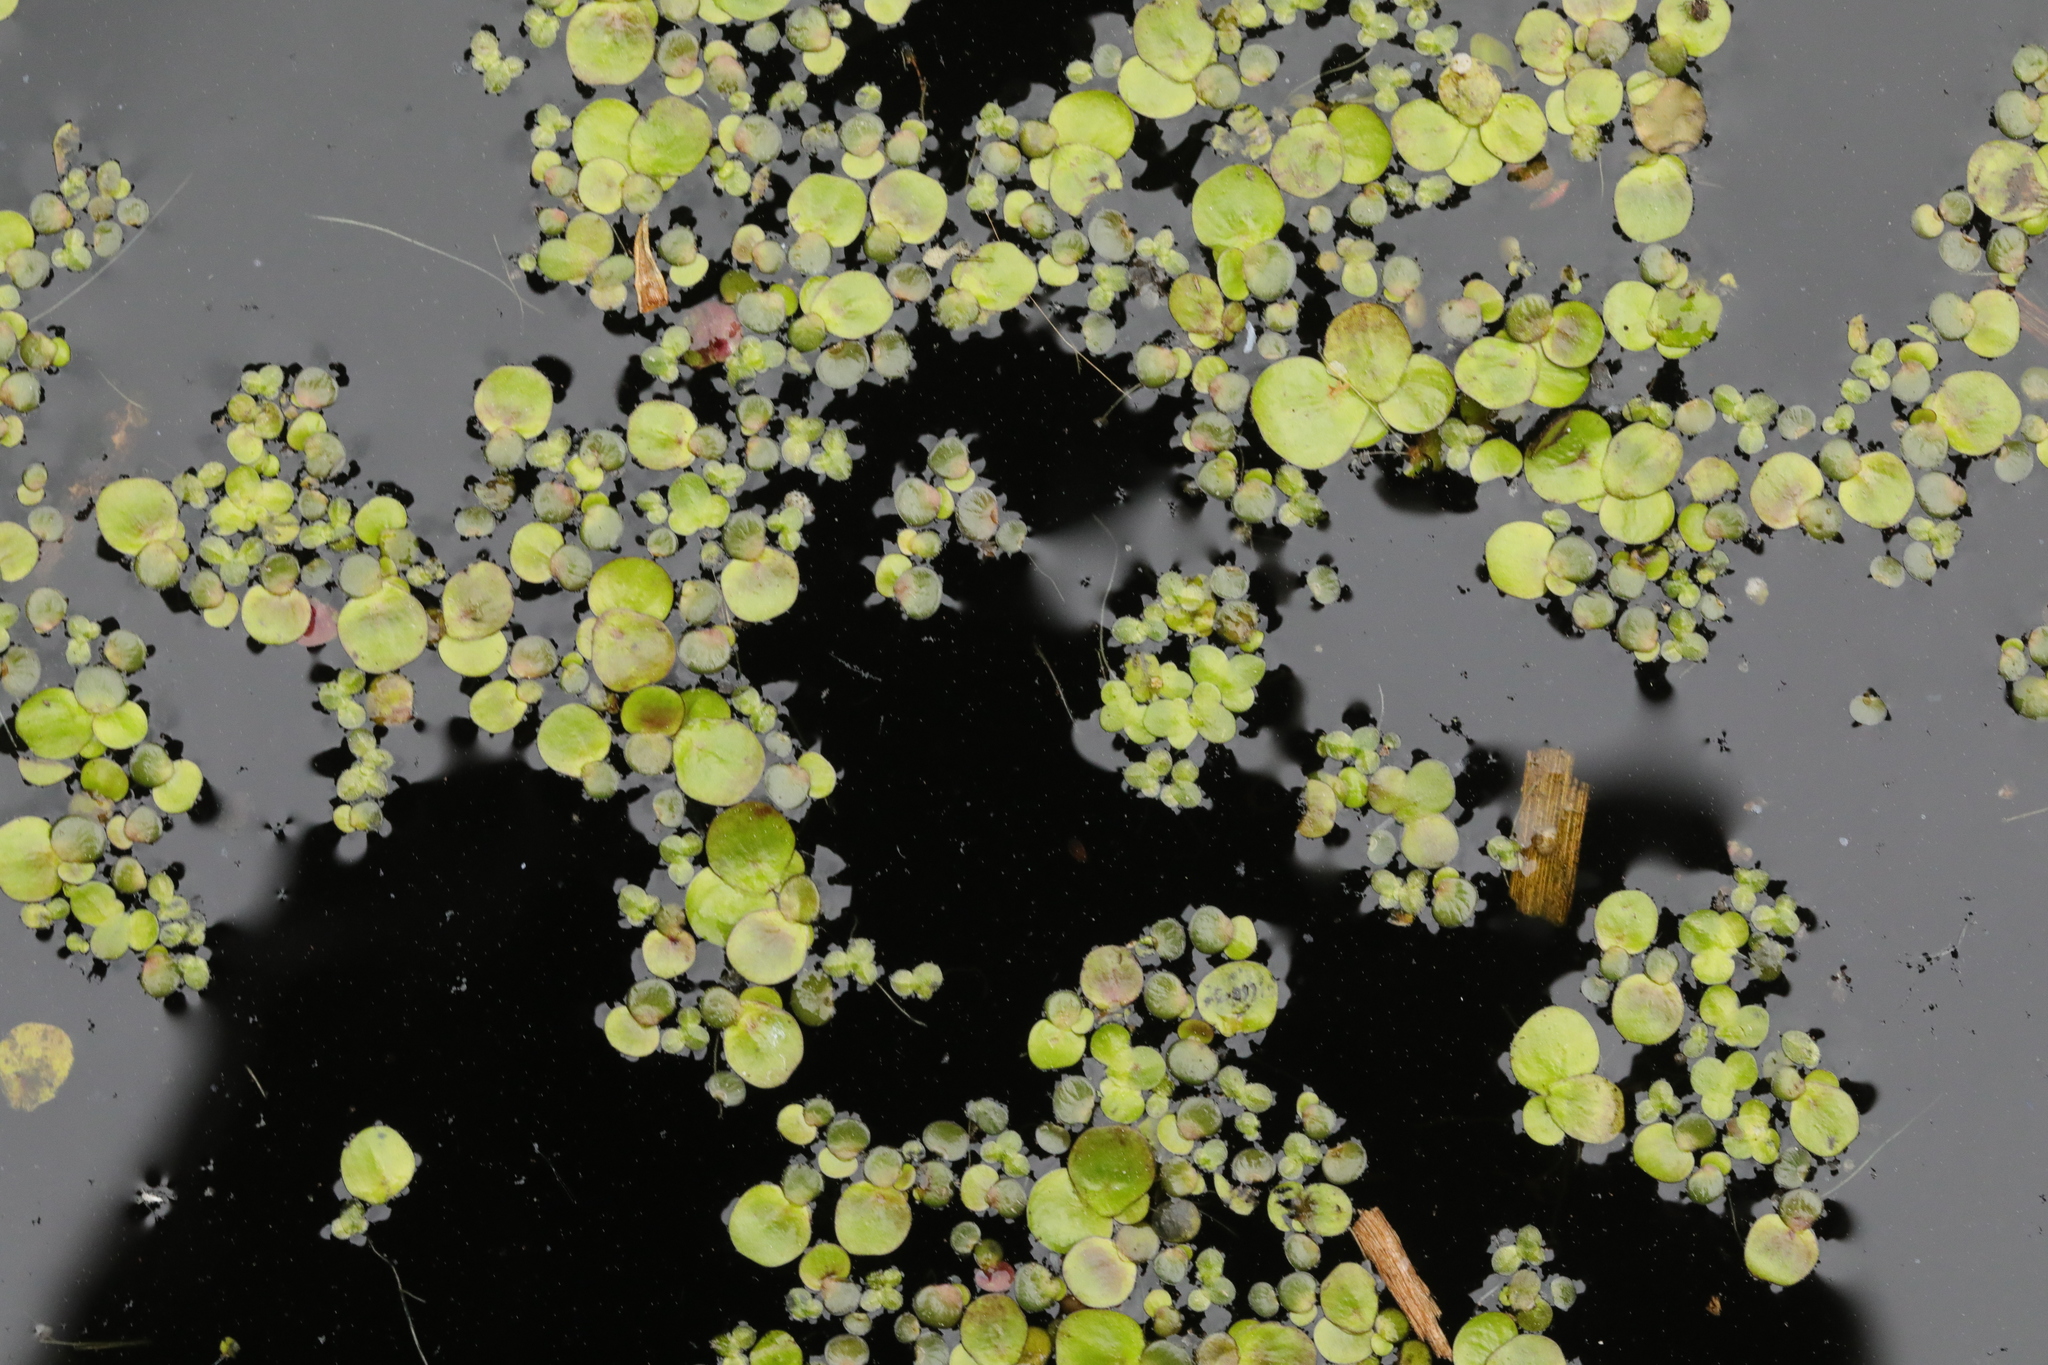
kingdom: Plantae
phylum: Tracheophyta
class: Liliopsida
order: Alismatales
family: Araceae
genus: Spirodela
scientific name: Spirodela polyrhiza
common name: Great duckweed
